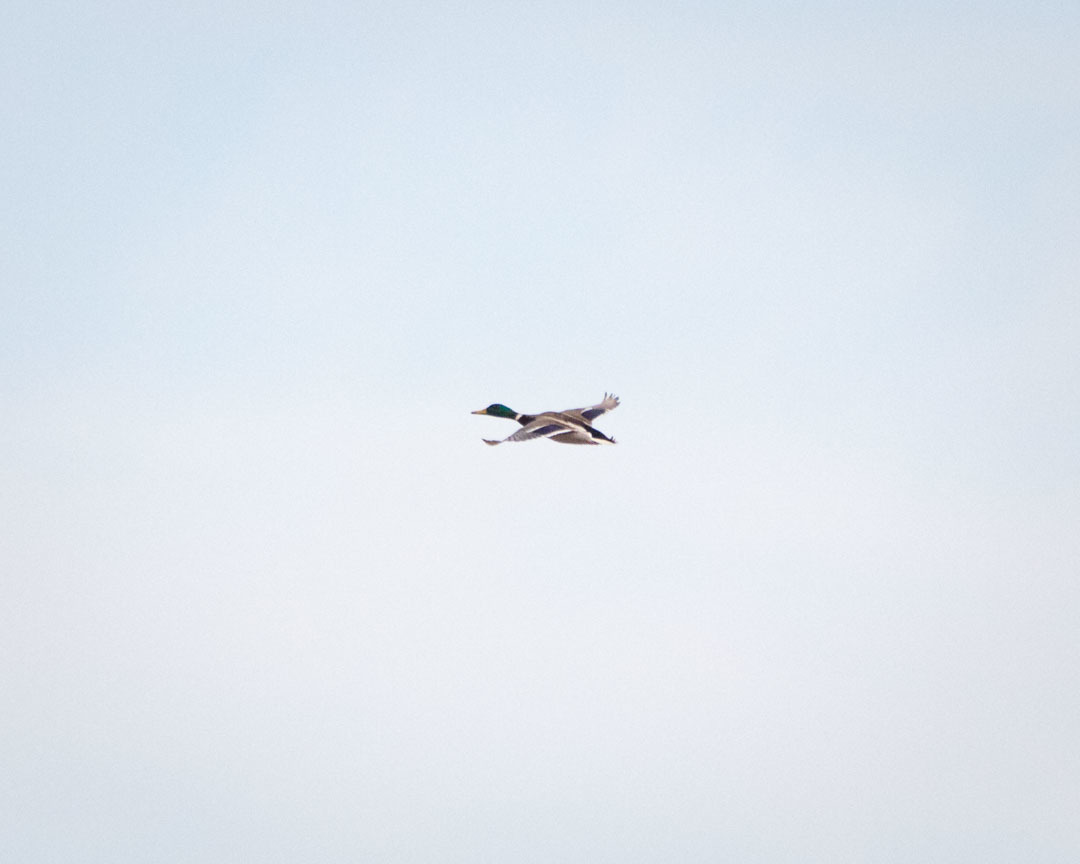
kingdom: Animalia
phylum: Chordata
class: Aves
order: Anseriformes
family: Anatidae
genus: Anas
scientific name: Anas platyrhynchos
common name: Mallard
